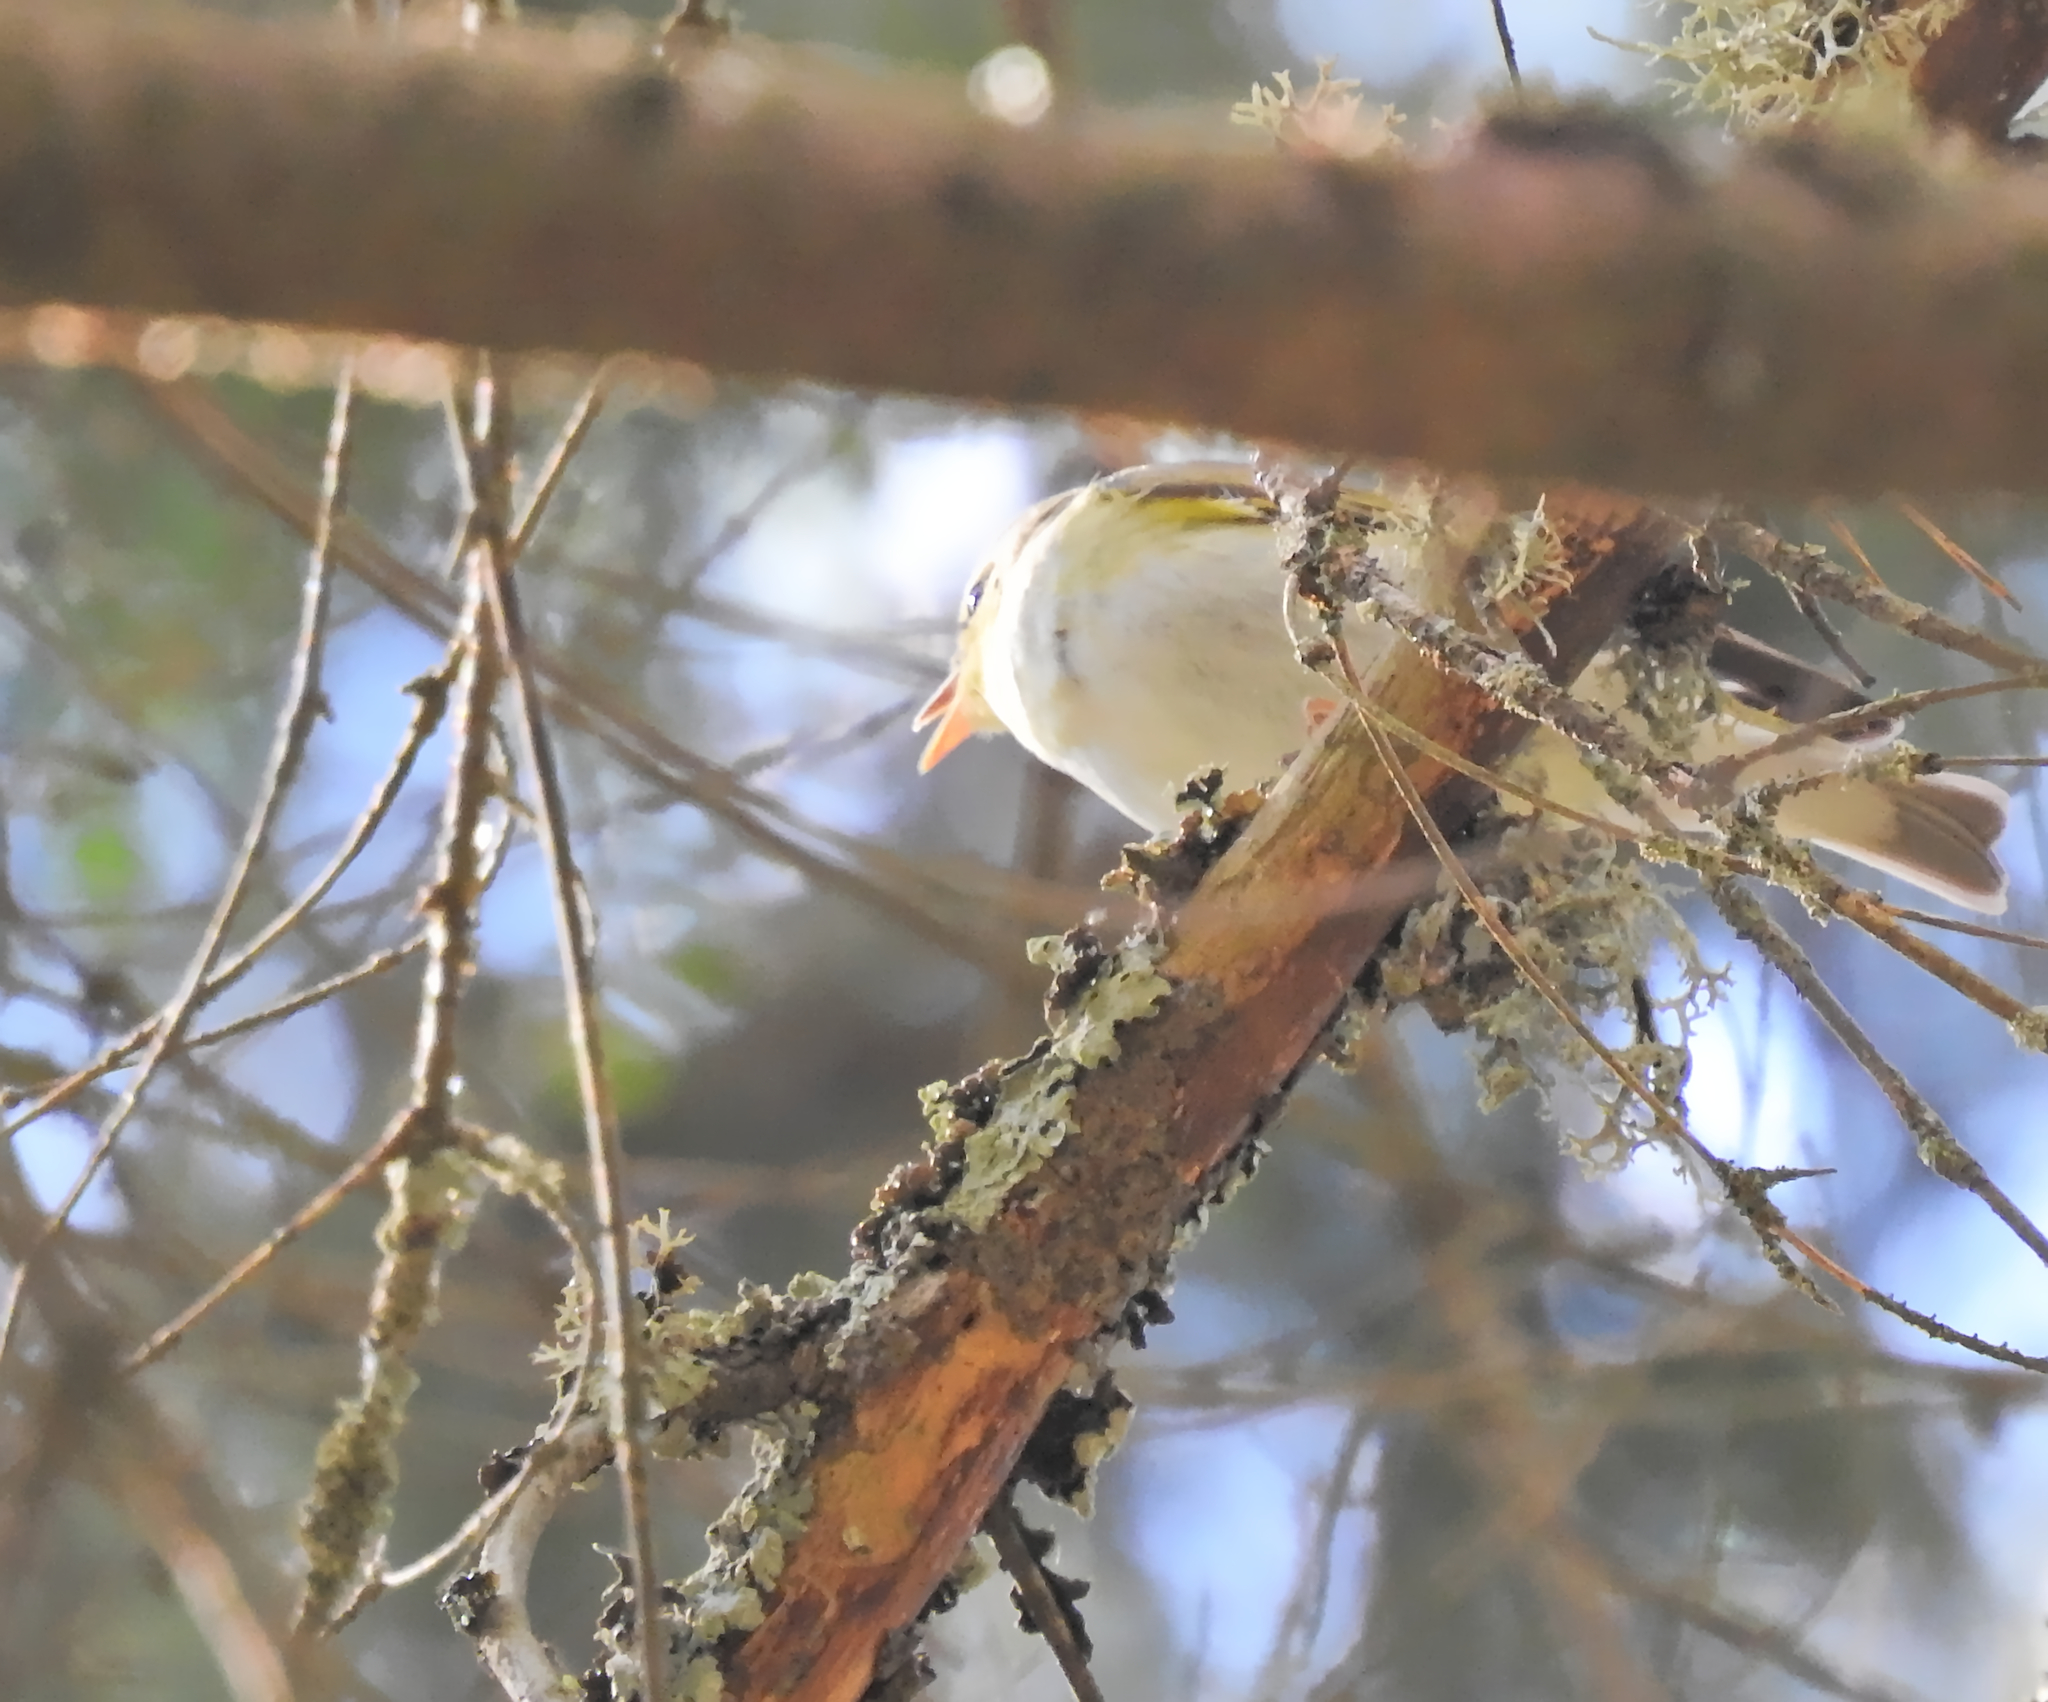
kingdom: Animalia
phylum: Chordata
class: Aves
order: Passeriformes
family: Phylloscopidae
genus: Phylloscopus
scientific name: Phylloscopus sibillatrix
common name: Wood warbler
